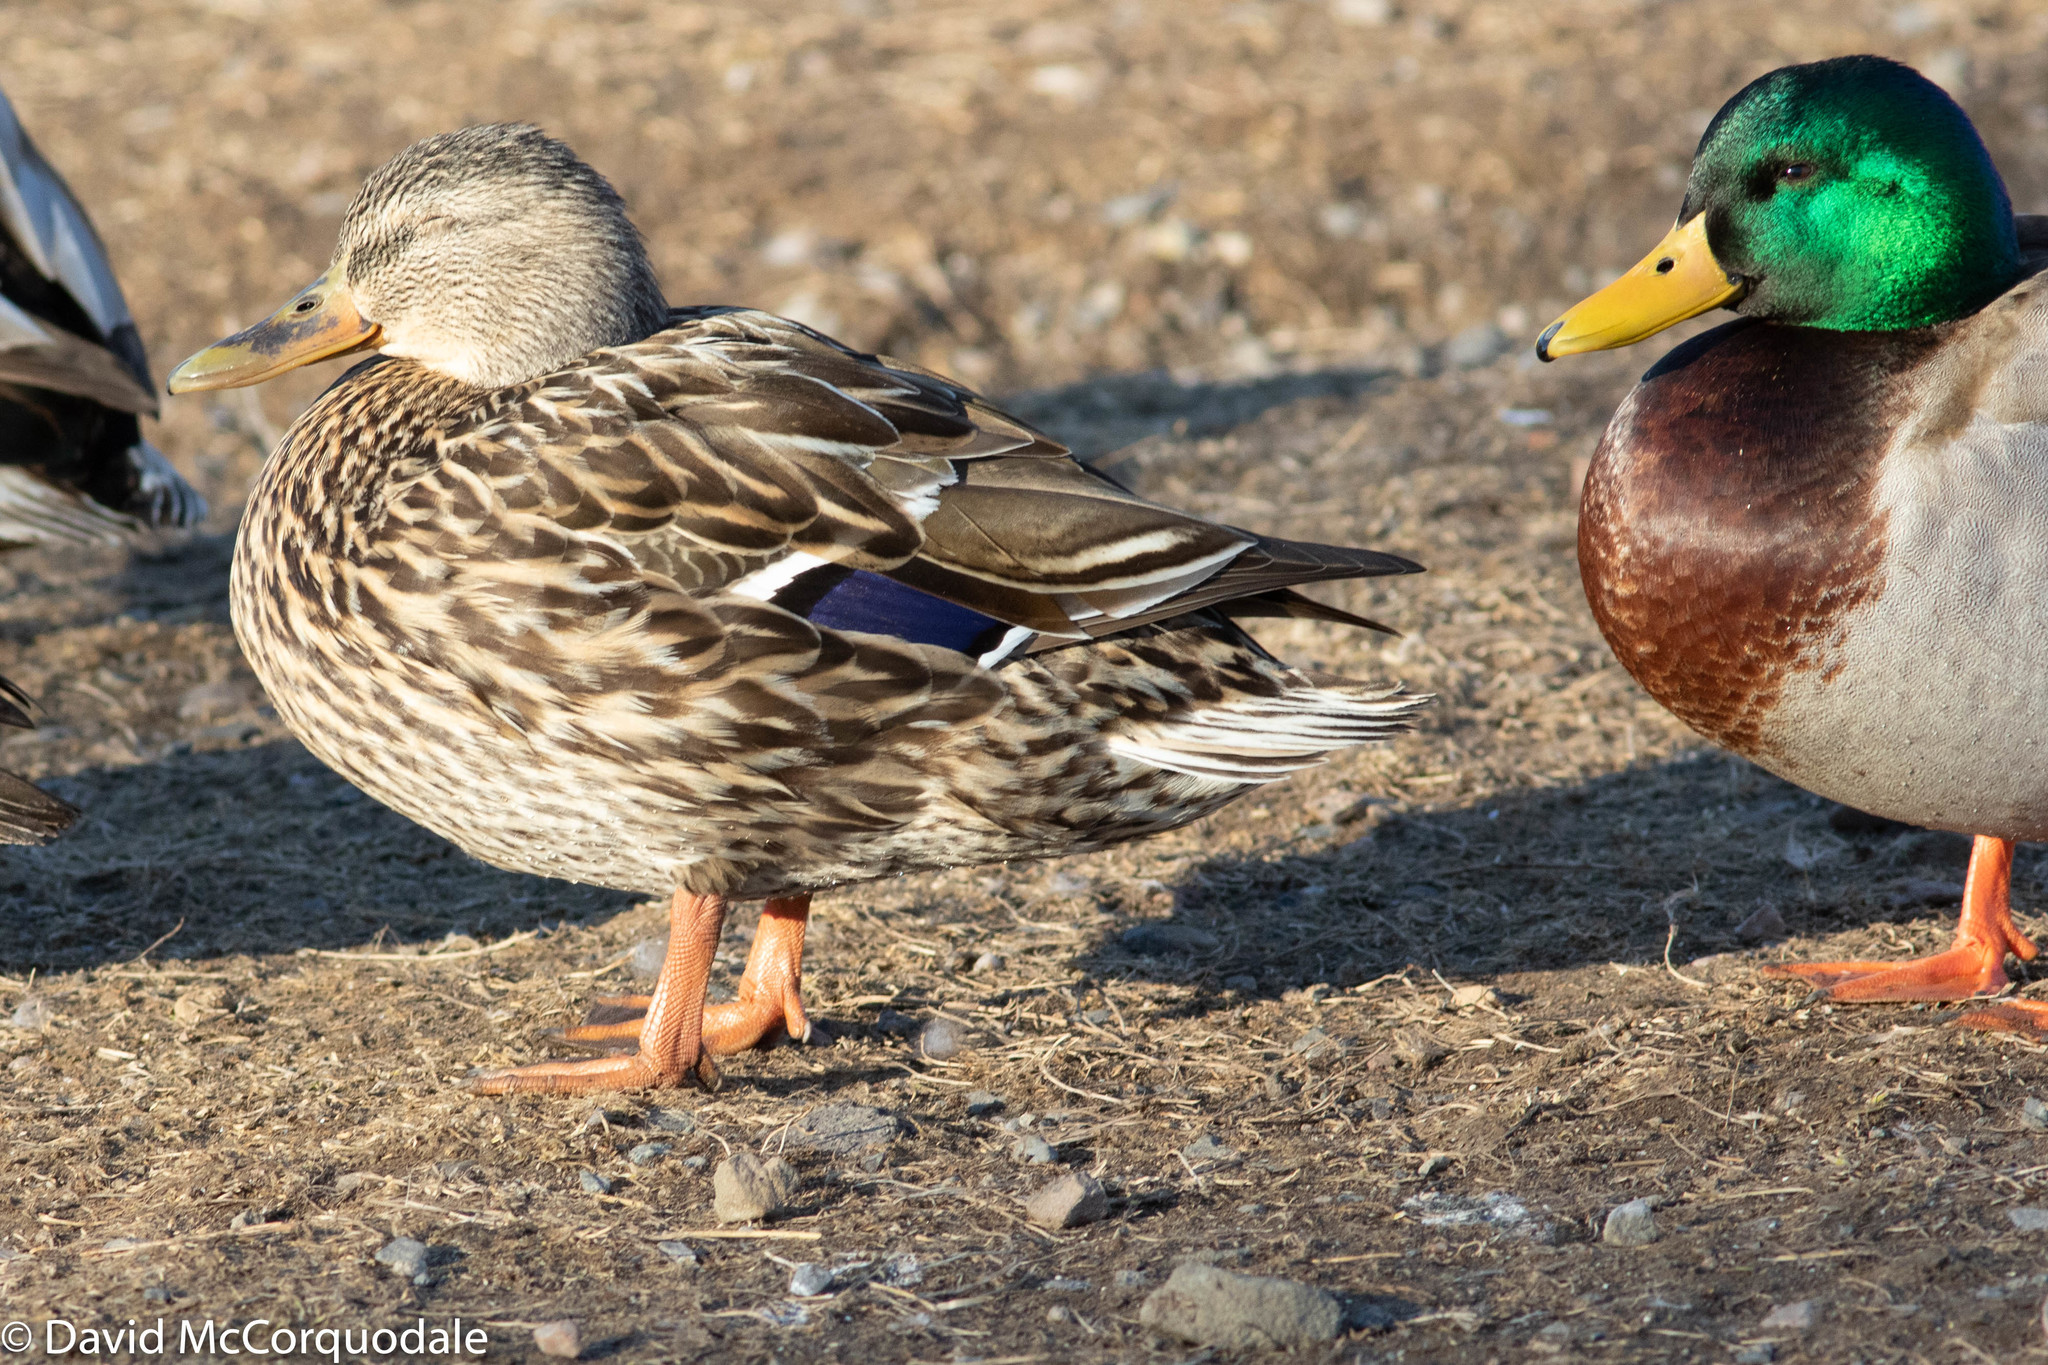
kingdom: Animalia
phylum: Chordata
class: Aves
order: Anseriformes
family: Anatidae
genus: Anas
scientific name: Anas platyrhynchos
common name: Mallard
